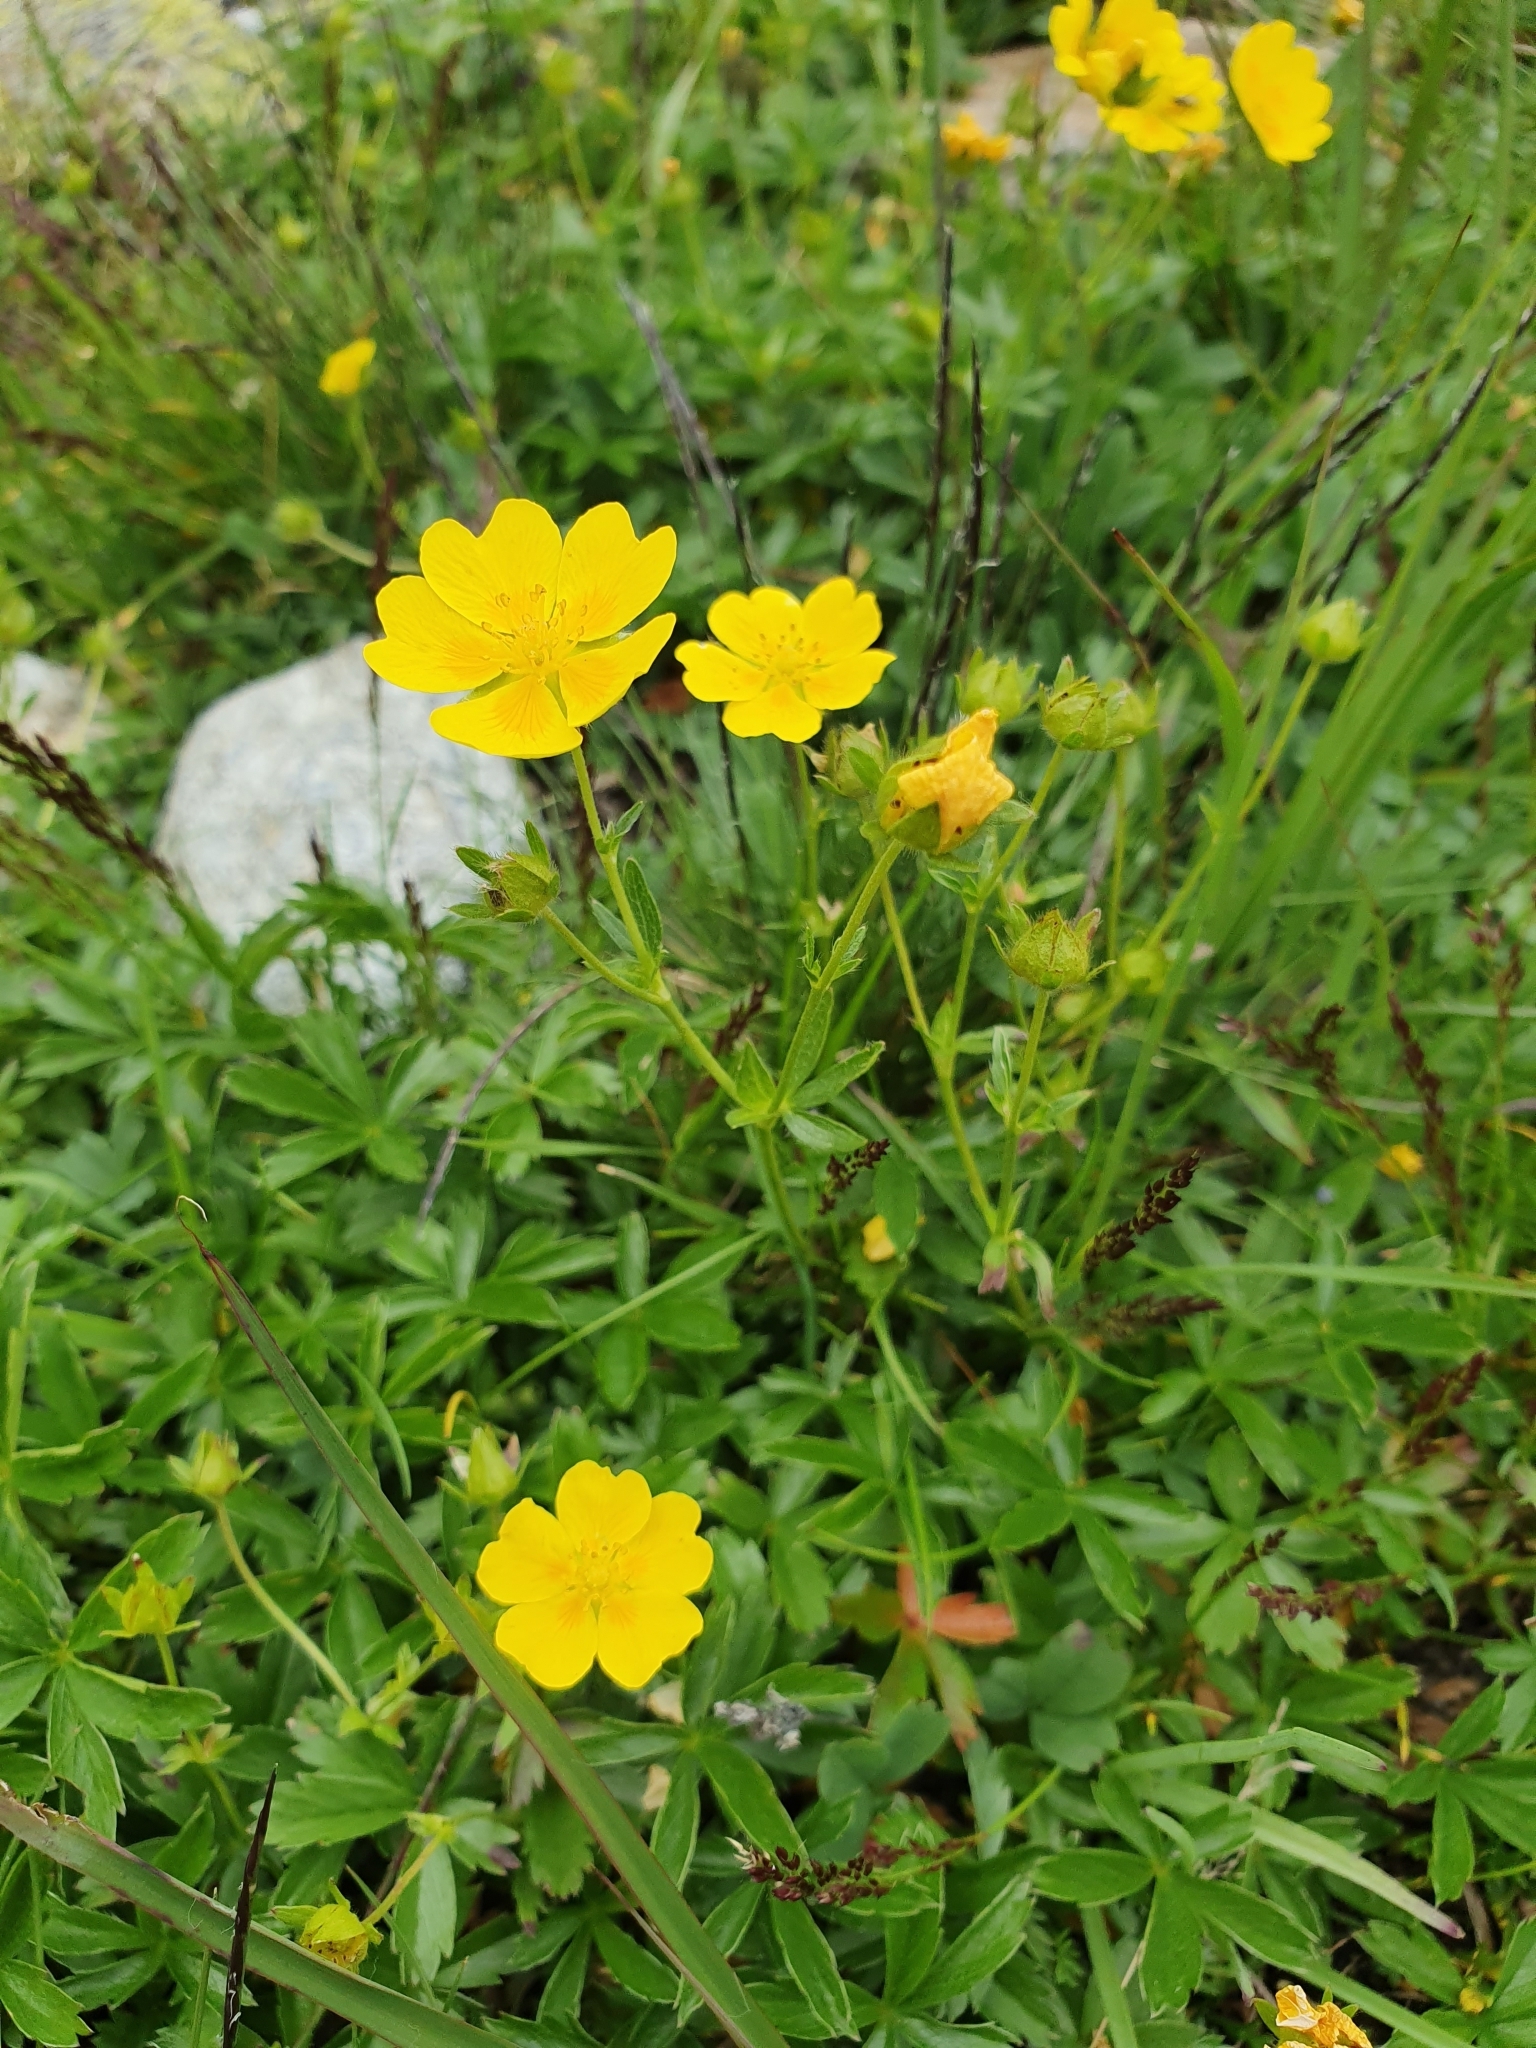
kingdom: Plantae
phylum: Tracheophyta
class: Magnoliopsida
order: Rosales
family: Rosaceae
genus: Potentilla
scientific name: Potentilla aurea
